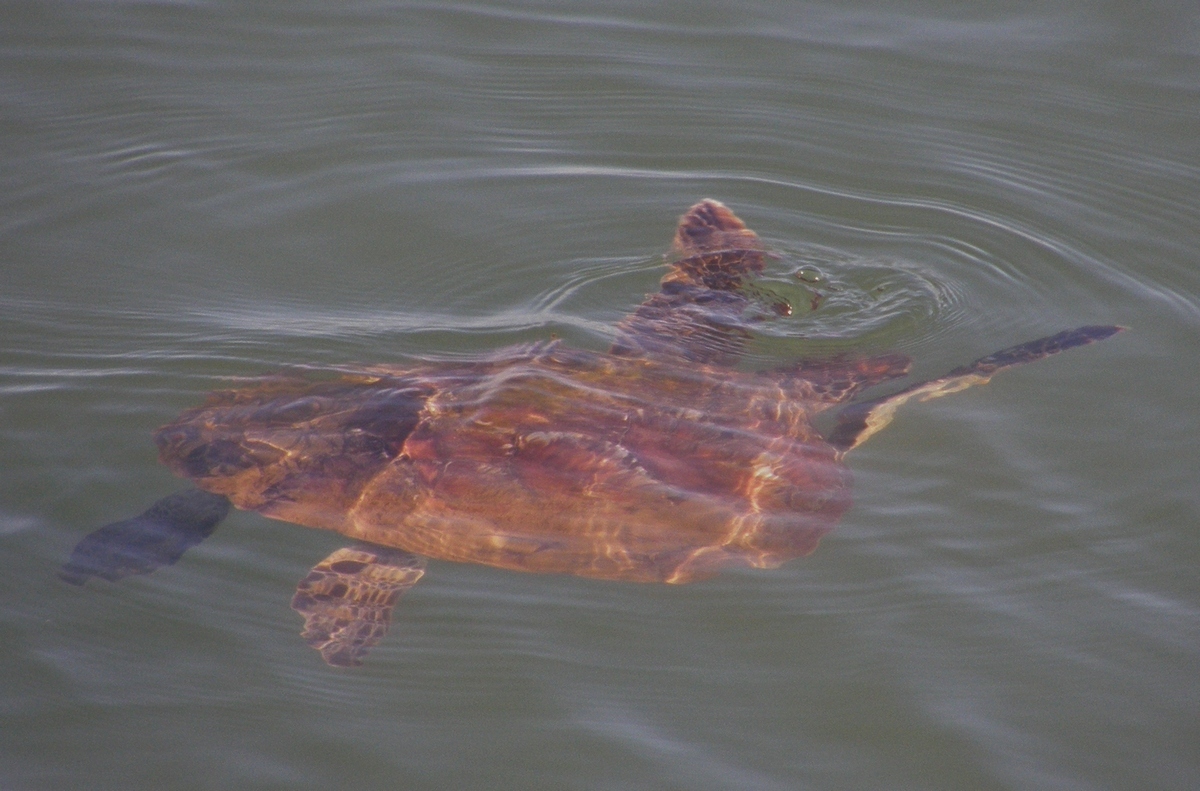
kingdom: Animalia
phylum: Chordata
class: Testudines
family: Cheloniidae
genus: Chelonia
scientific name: Chelonia mydas
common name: Green turtle
